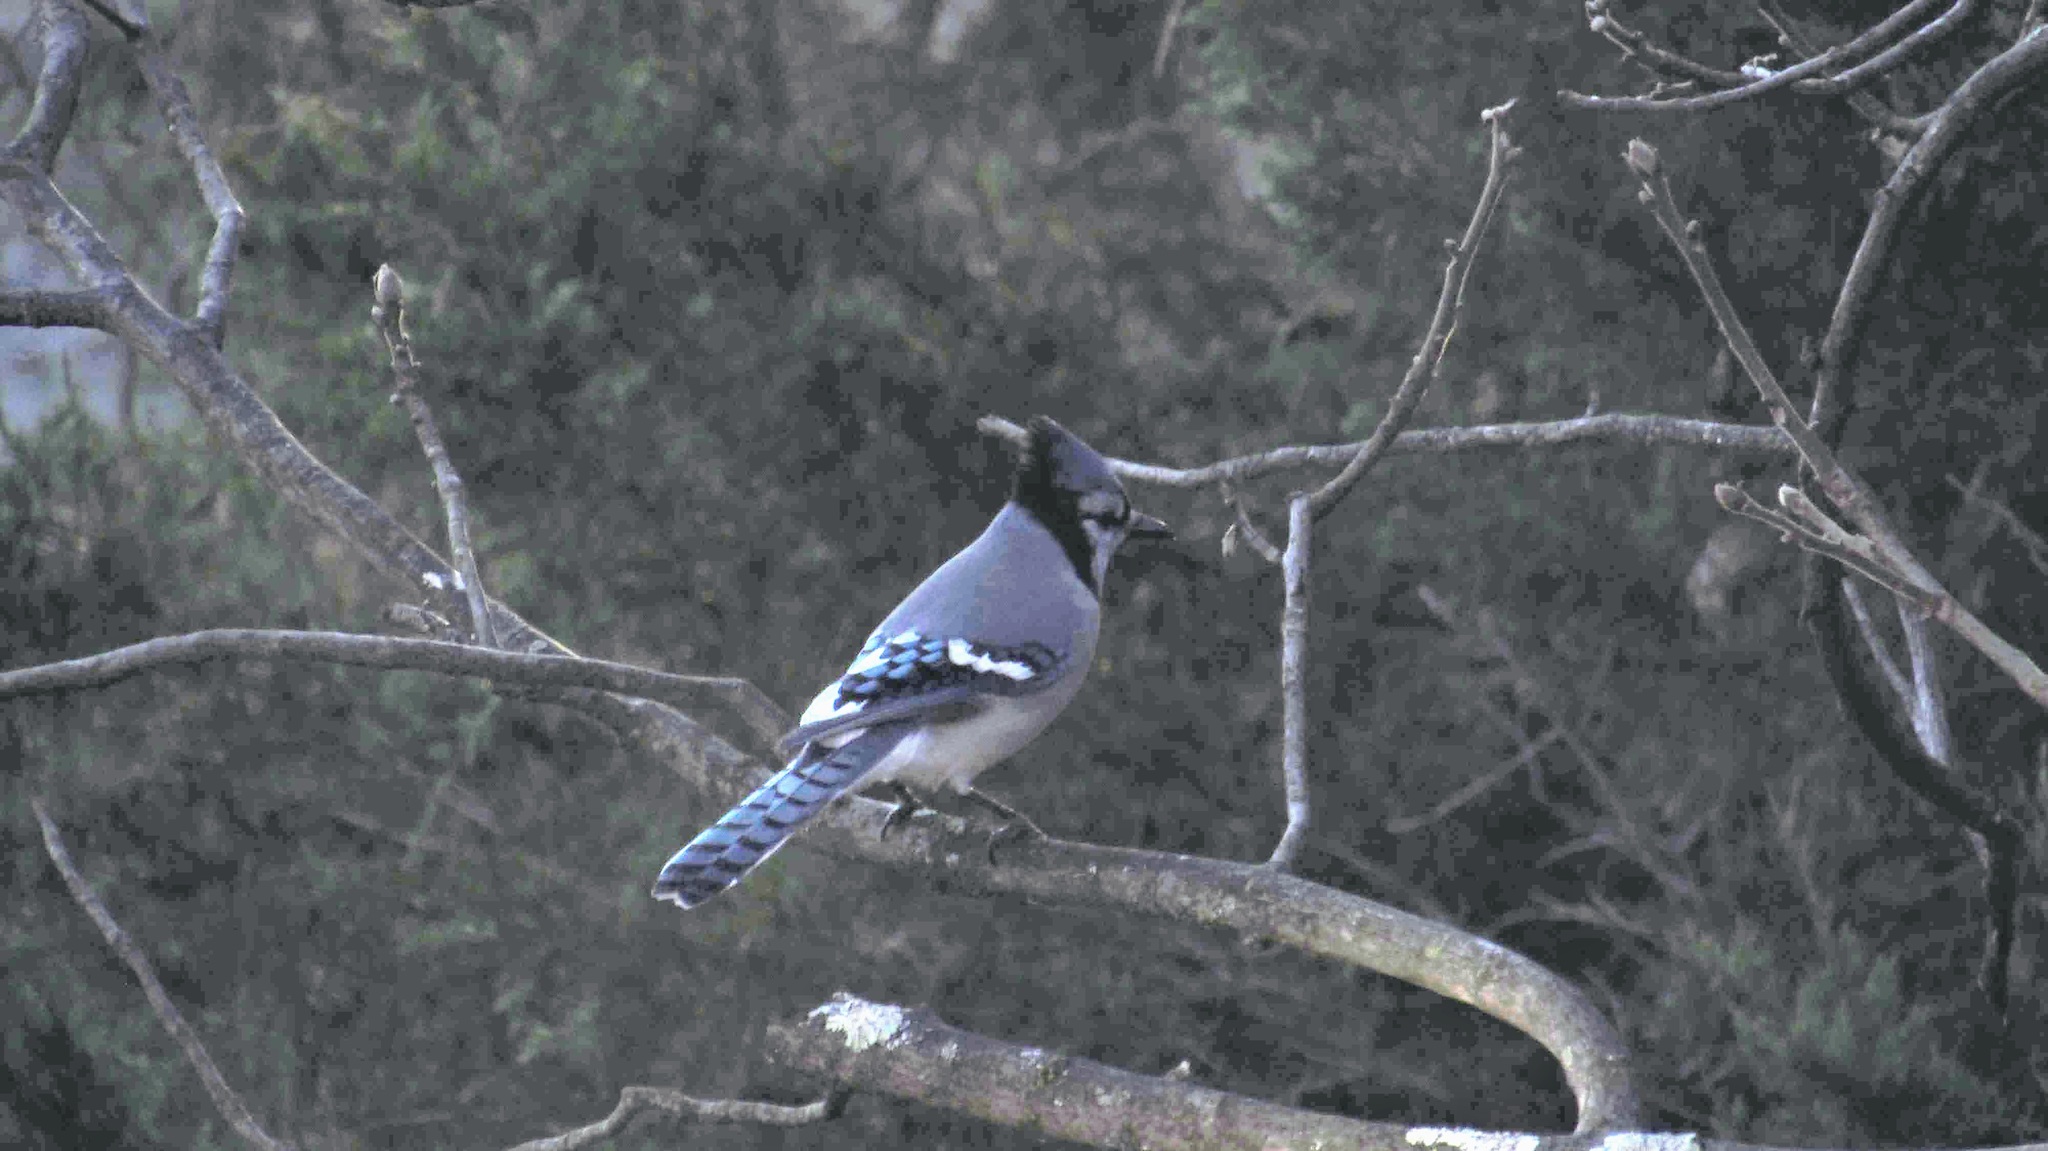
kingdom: Animalia
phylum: Chordata
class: Aves
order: Passeriformes
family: Corvidae
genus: Cyanocitta
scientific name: Cyanocitta cristata
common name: Blue jay
